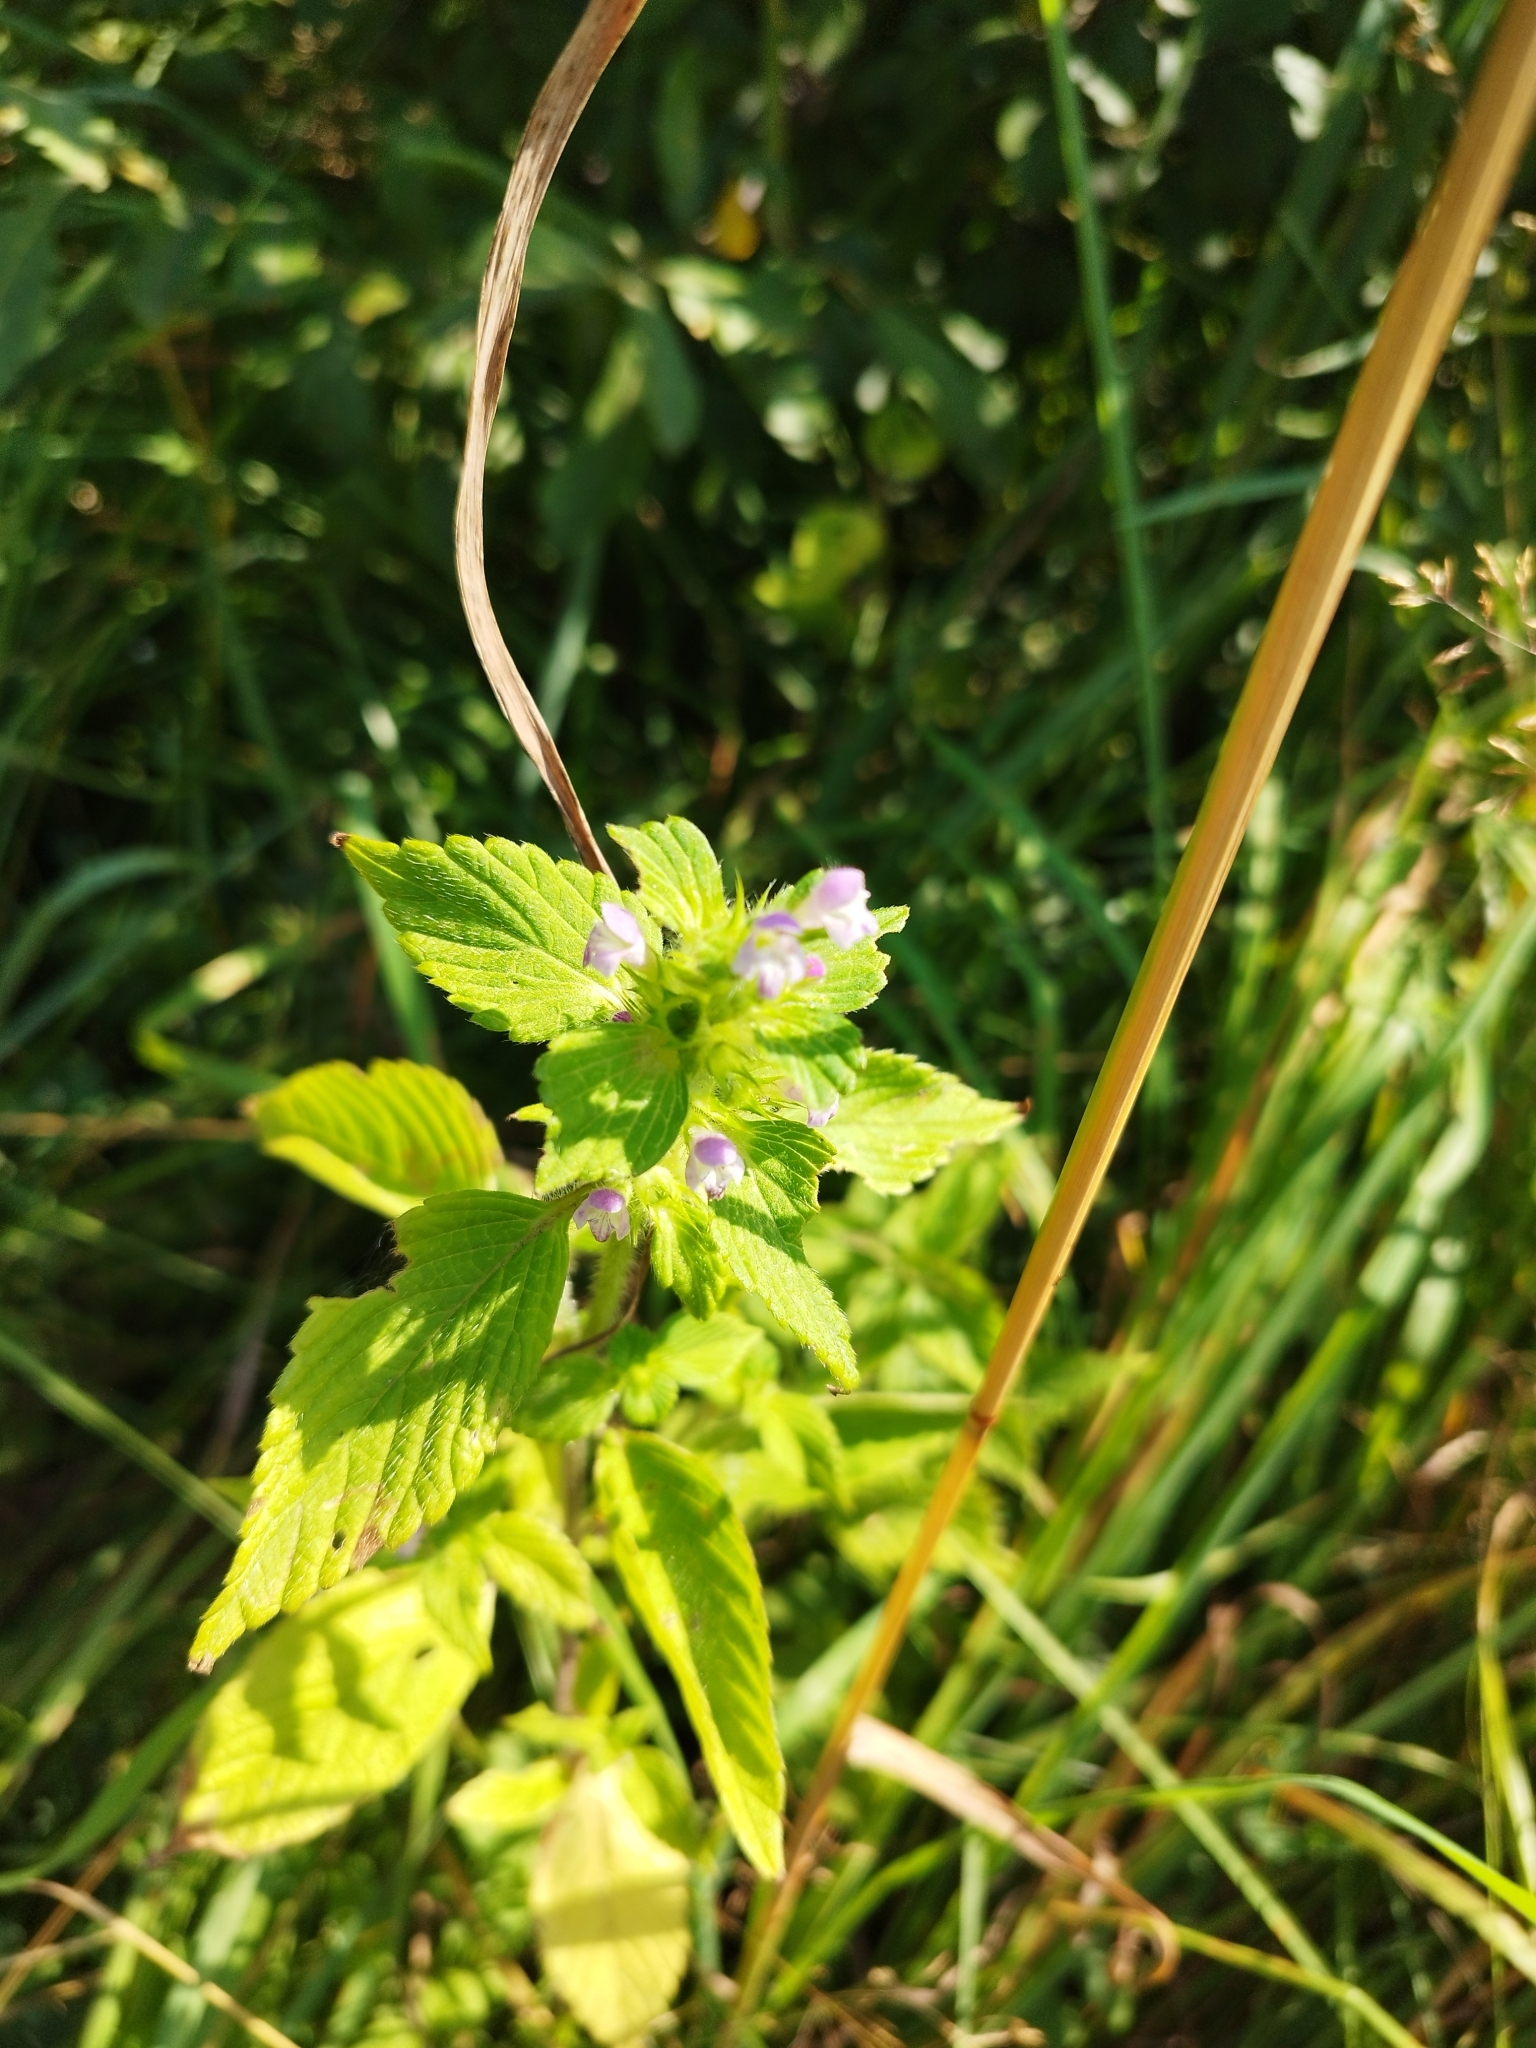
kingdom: Plantae
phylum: Tracheophyta
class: Magnoliopsida
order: Lamiales
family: Lamiaceae
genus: Galeopsis
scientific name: Galeopsis bifida
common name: Bifid hemp-nettle
